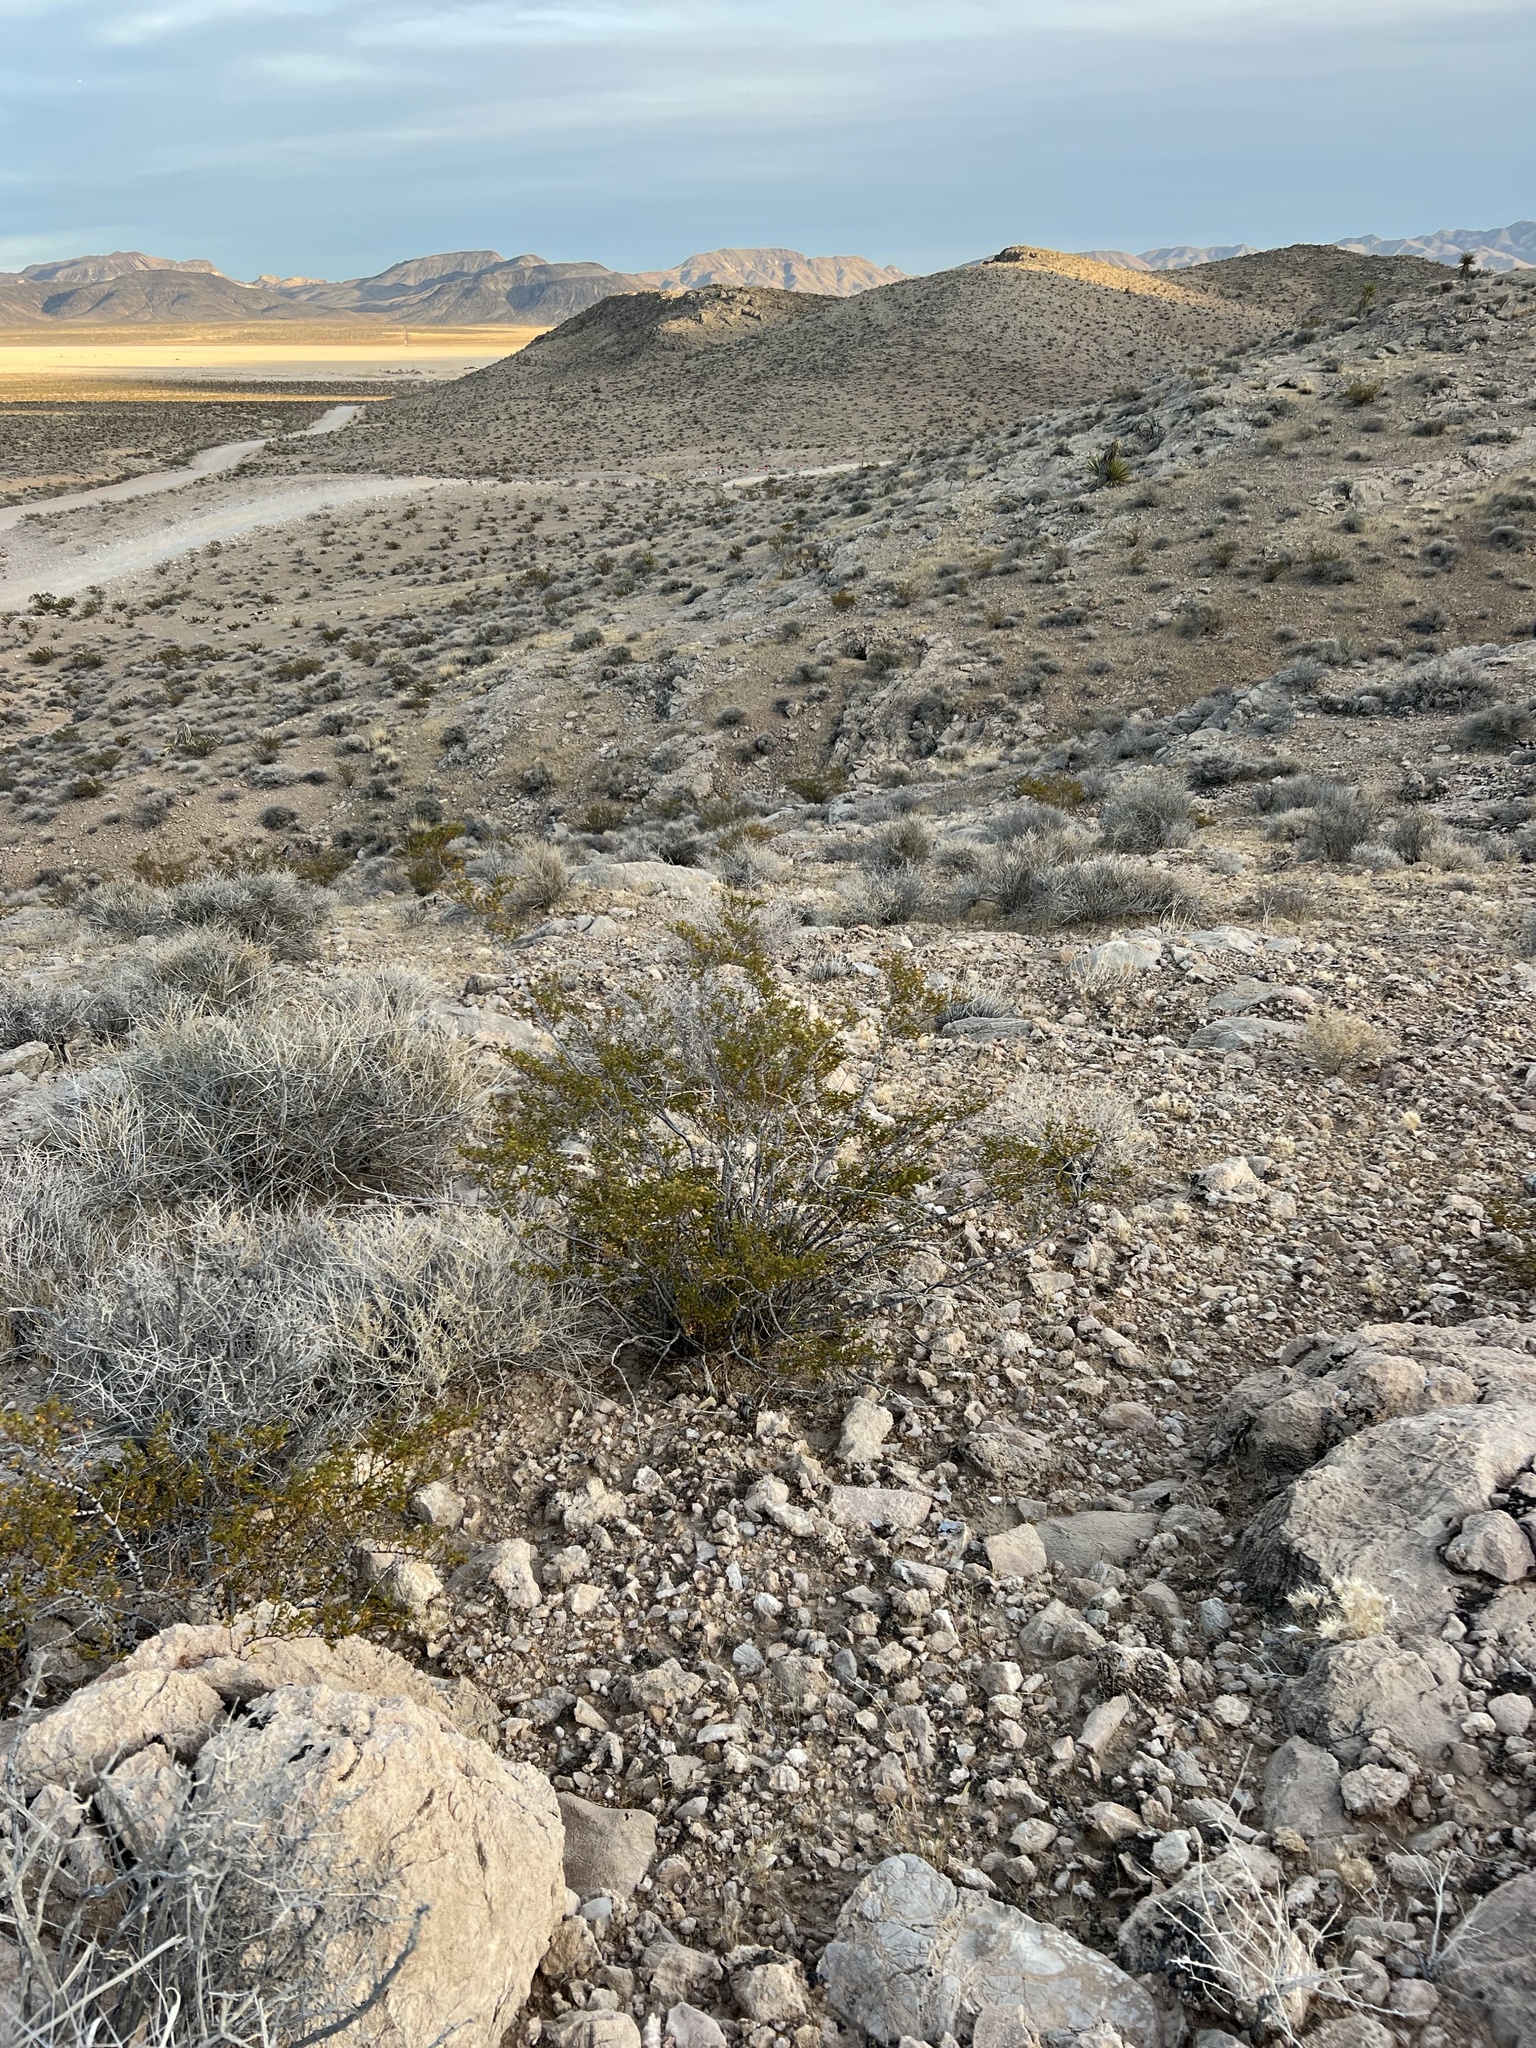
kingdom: Plantae
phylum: Tracheophyta
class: Magnoliopsida
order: Zygophyllales
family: Zygophyllaceae
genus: Larrea
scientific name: Larrea tridentata
